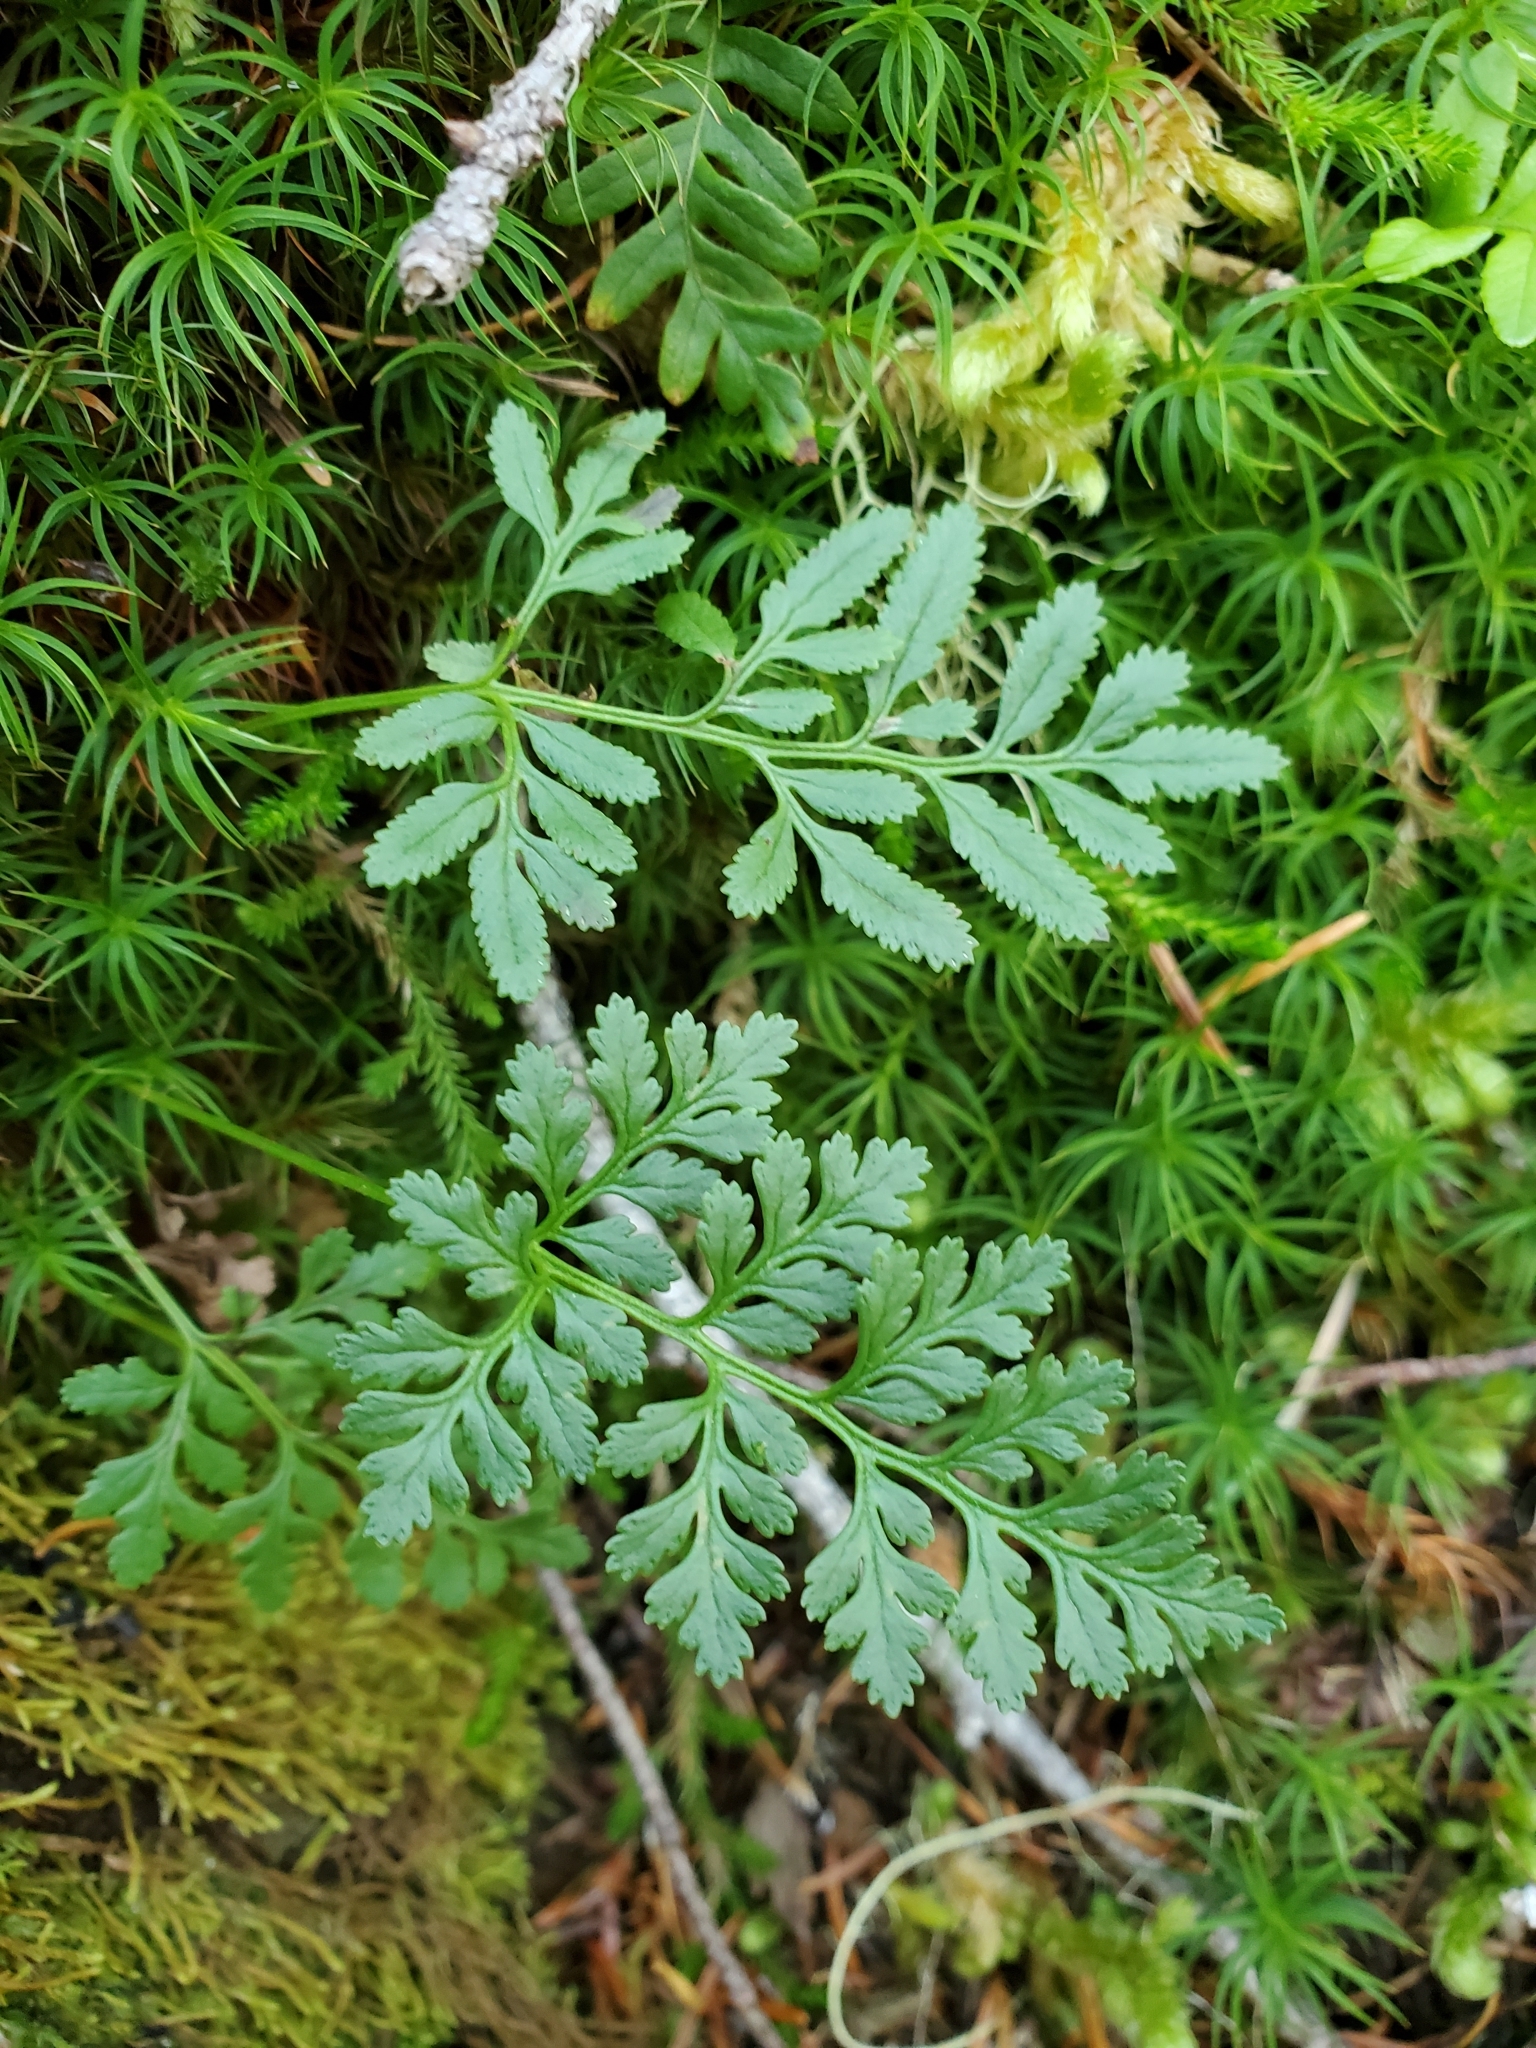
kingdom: Plantae
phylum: Tracheophyta
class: Polypodiopsida
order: Polypodiales
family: Pteridaceae
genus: Cryptogramma
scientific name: Cryptogramma acrostichoides
